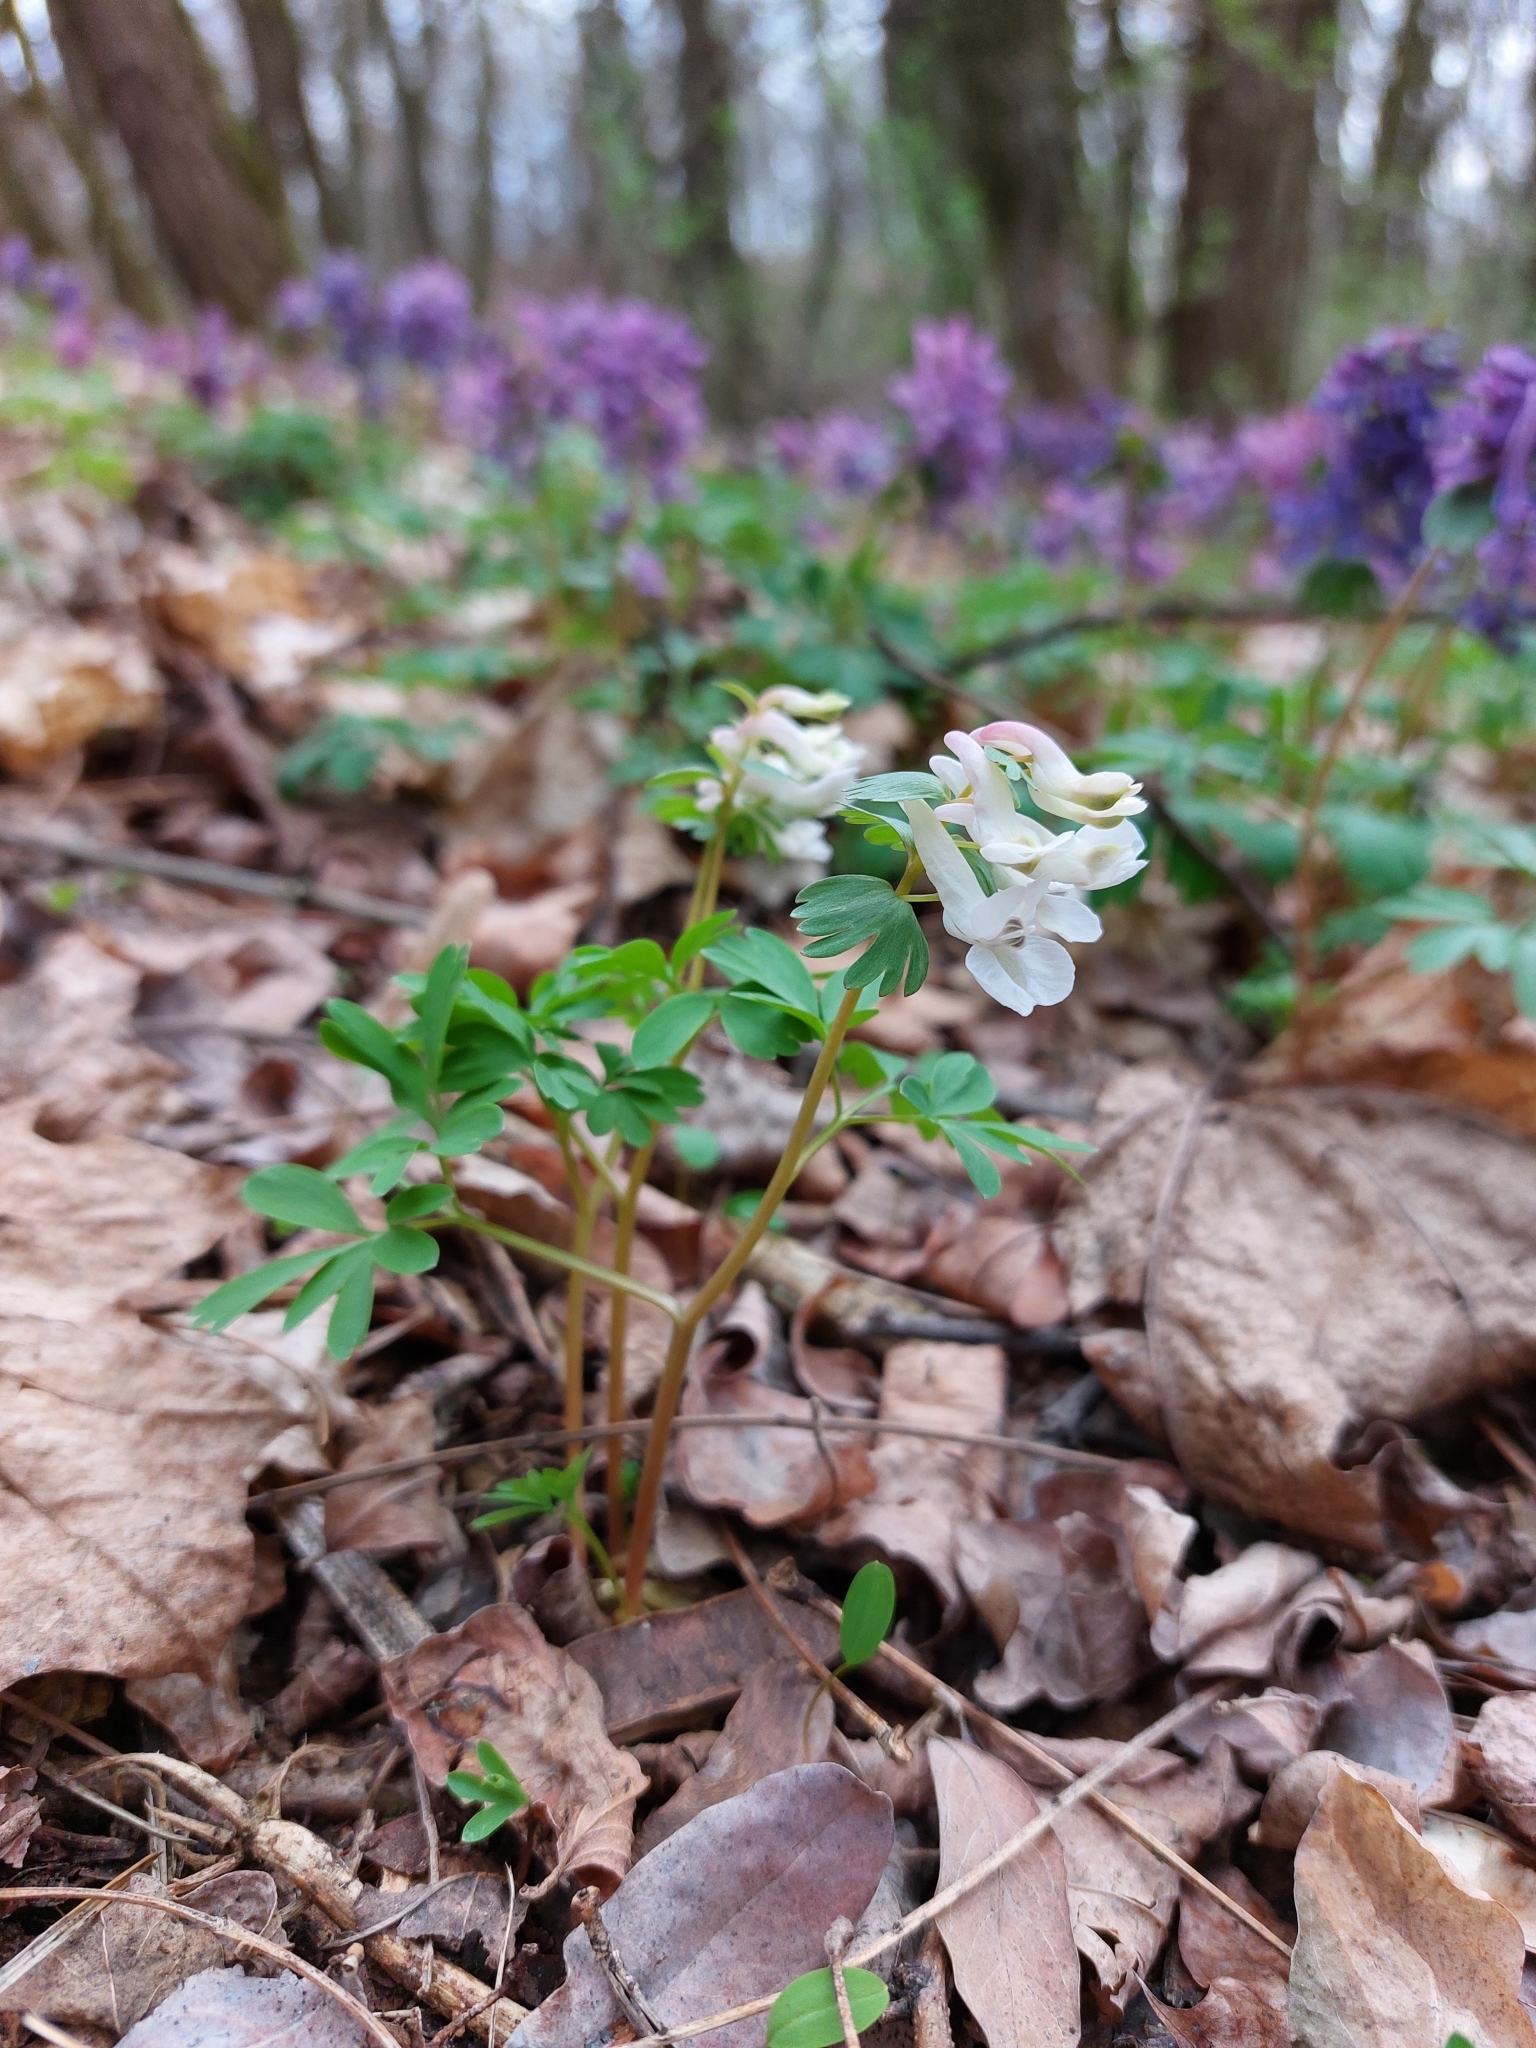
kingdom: Plantae
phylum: Tracheophyta
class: Magnoliopsida
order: Ranunculales
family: Papaveraceae
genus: Corydalis
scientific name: Corydalis solida
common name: Bird-in-a-bush
